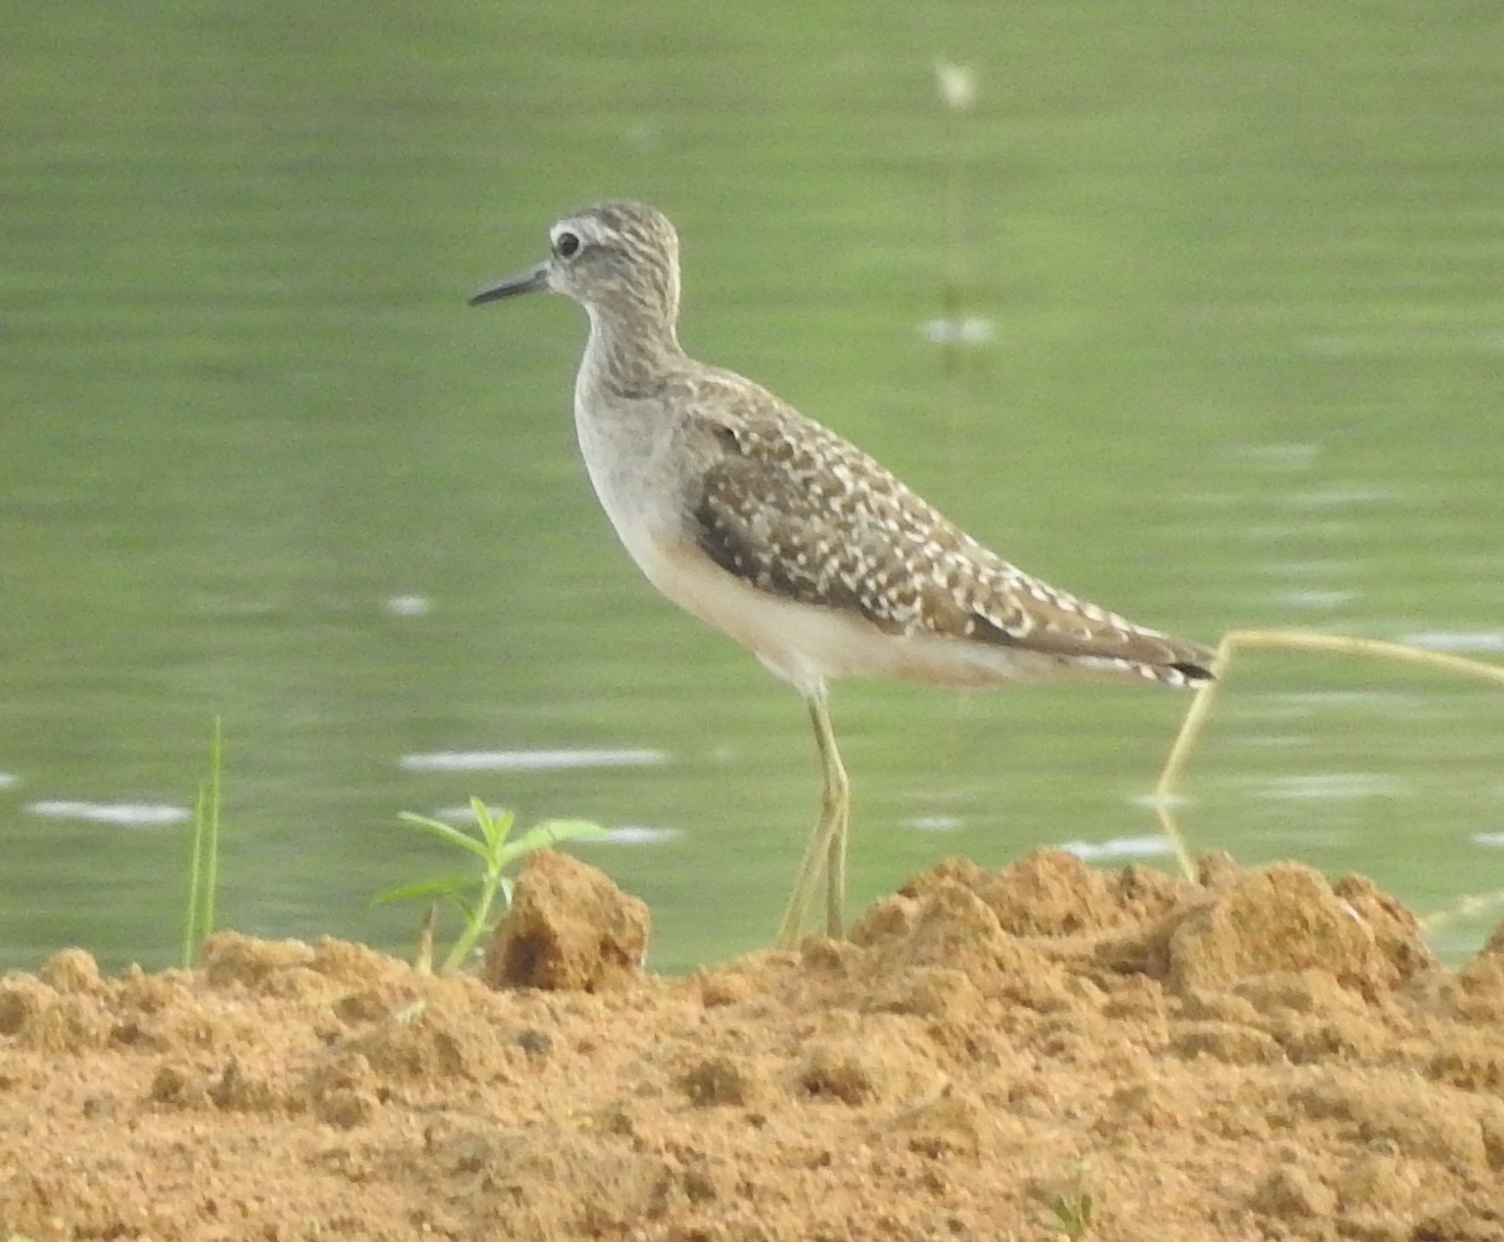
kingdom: Animalia
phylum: Chordata
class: Aves
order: Charadriiformes
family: Scolopacidae
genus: Tringa
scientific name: Tringa glareola
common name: Wood sandpiper
